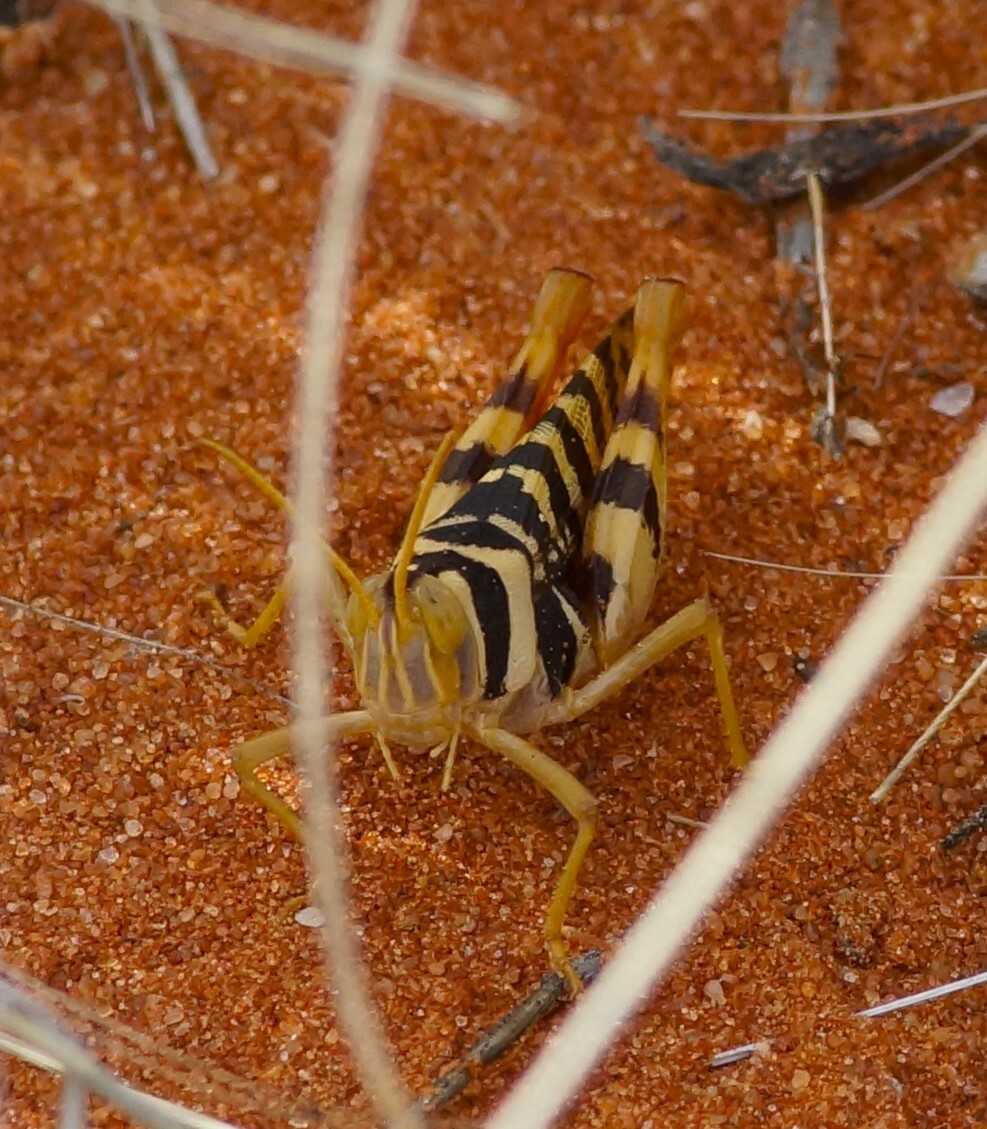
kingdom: Animalia
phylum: Arthropoda
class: Insecta
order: Orthoptera
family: Acrididae
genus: Stropis
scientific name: Stropis maculosa
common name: Leopard grasshopper
